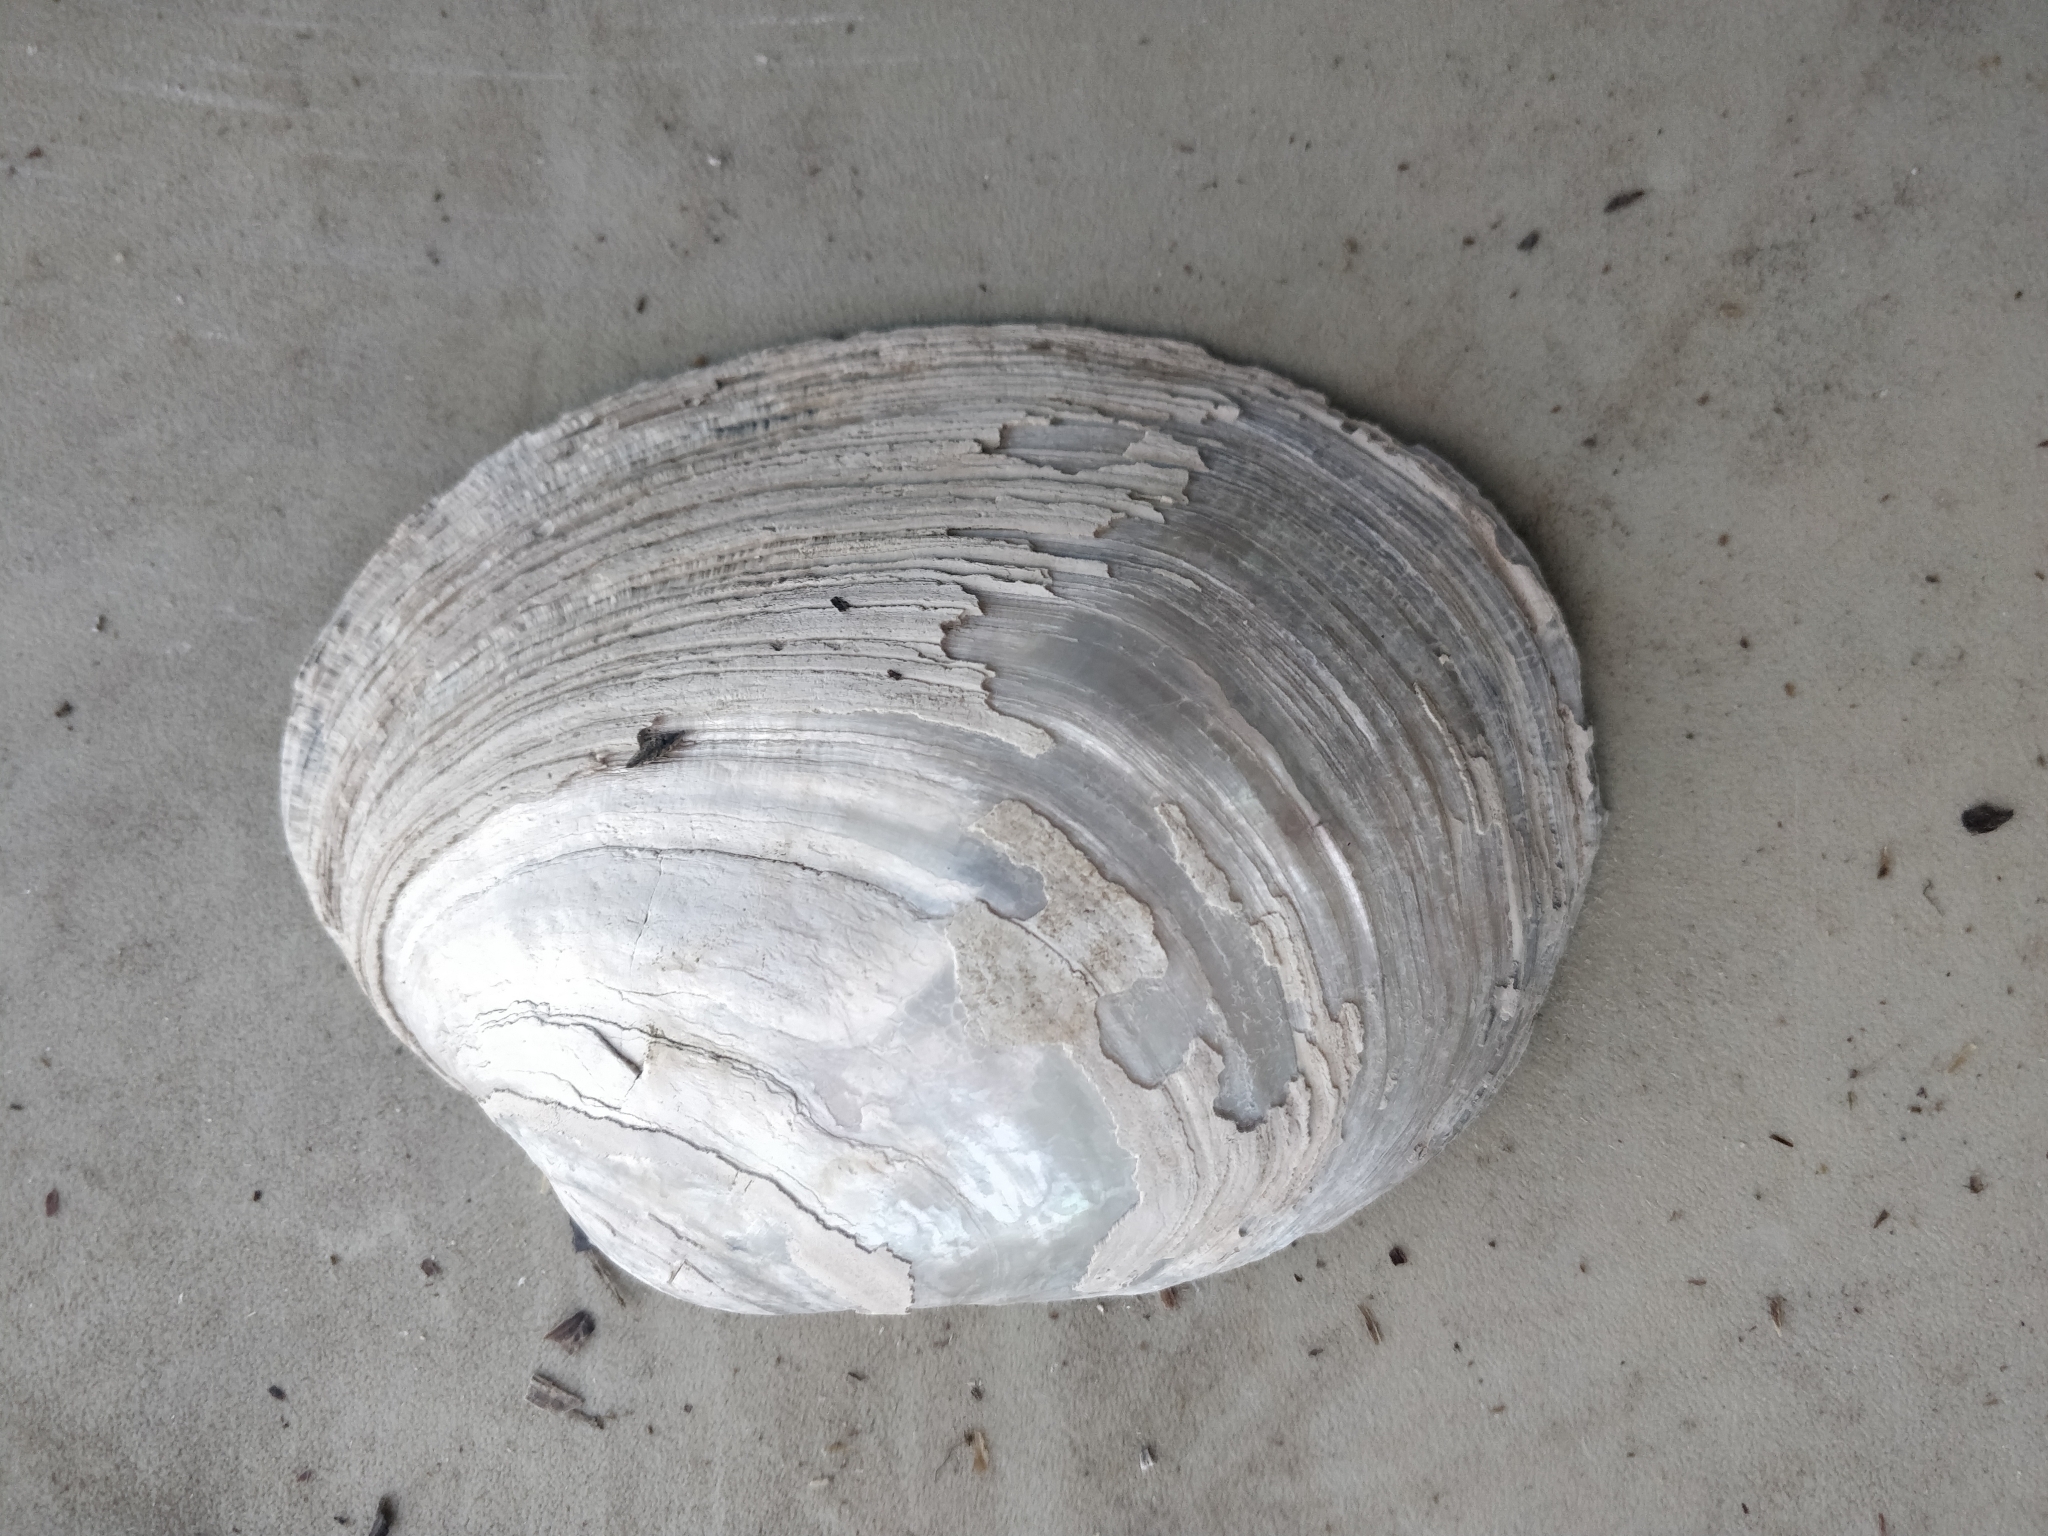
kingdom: Animalia
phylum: Mollusca
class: Bivalvia
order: Unionida
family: Unionidae
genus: Lampsilis
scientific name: Lampsilis cardium
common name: Plain pocketbook
